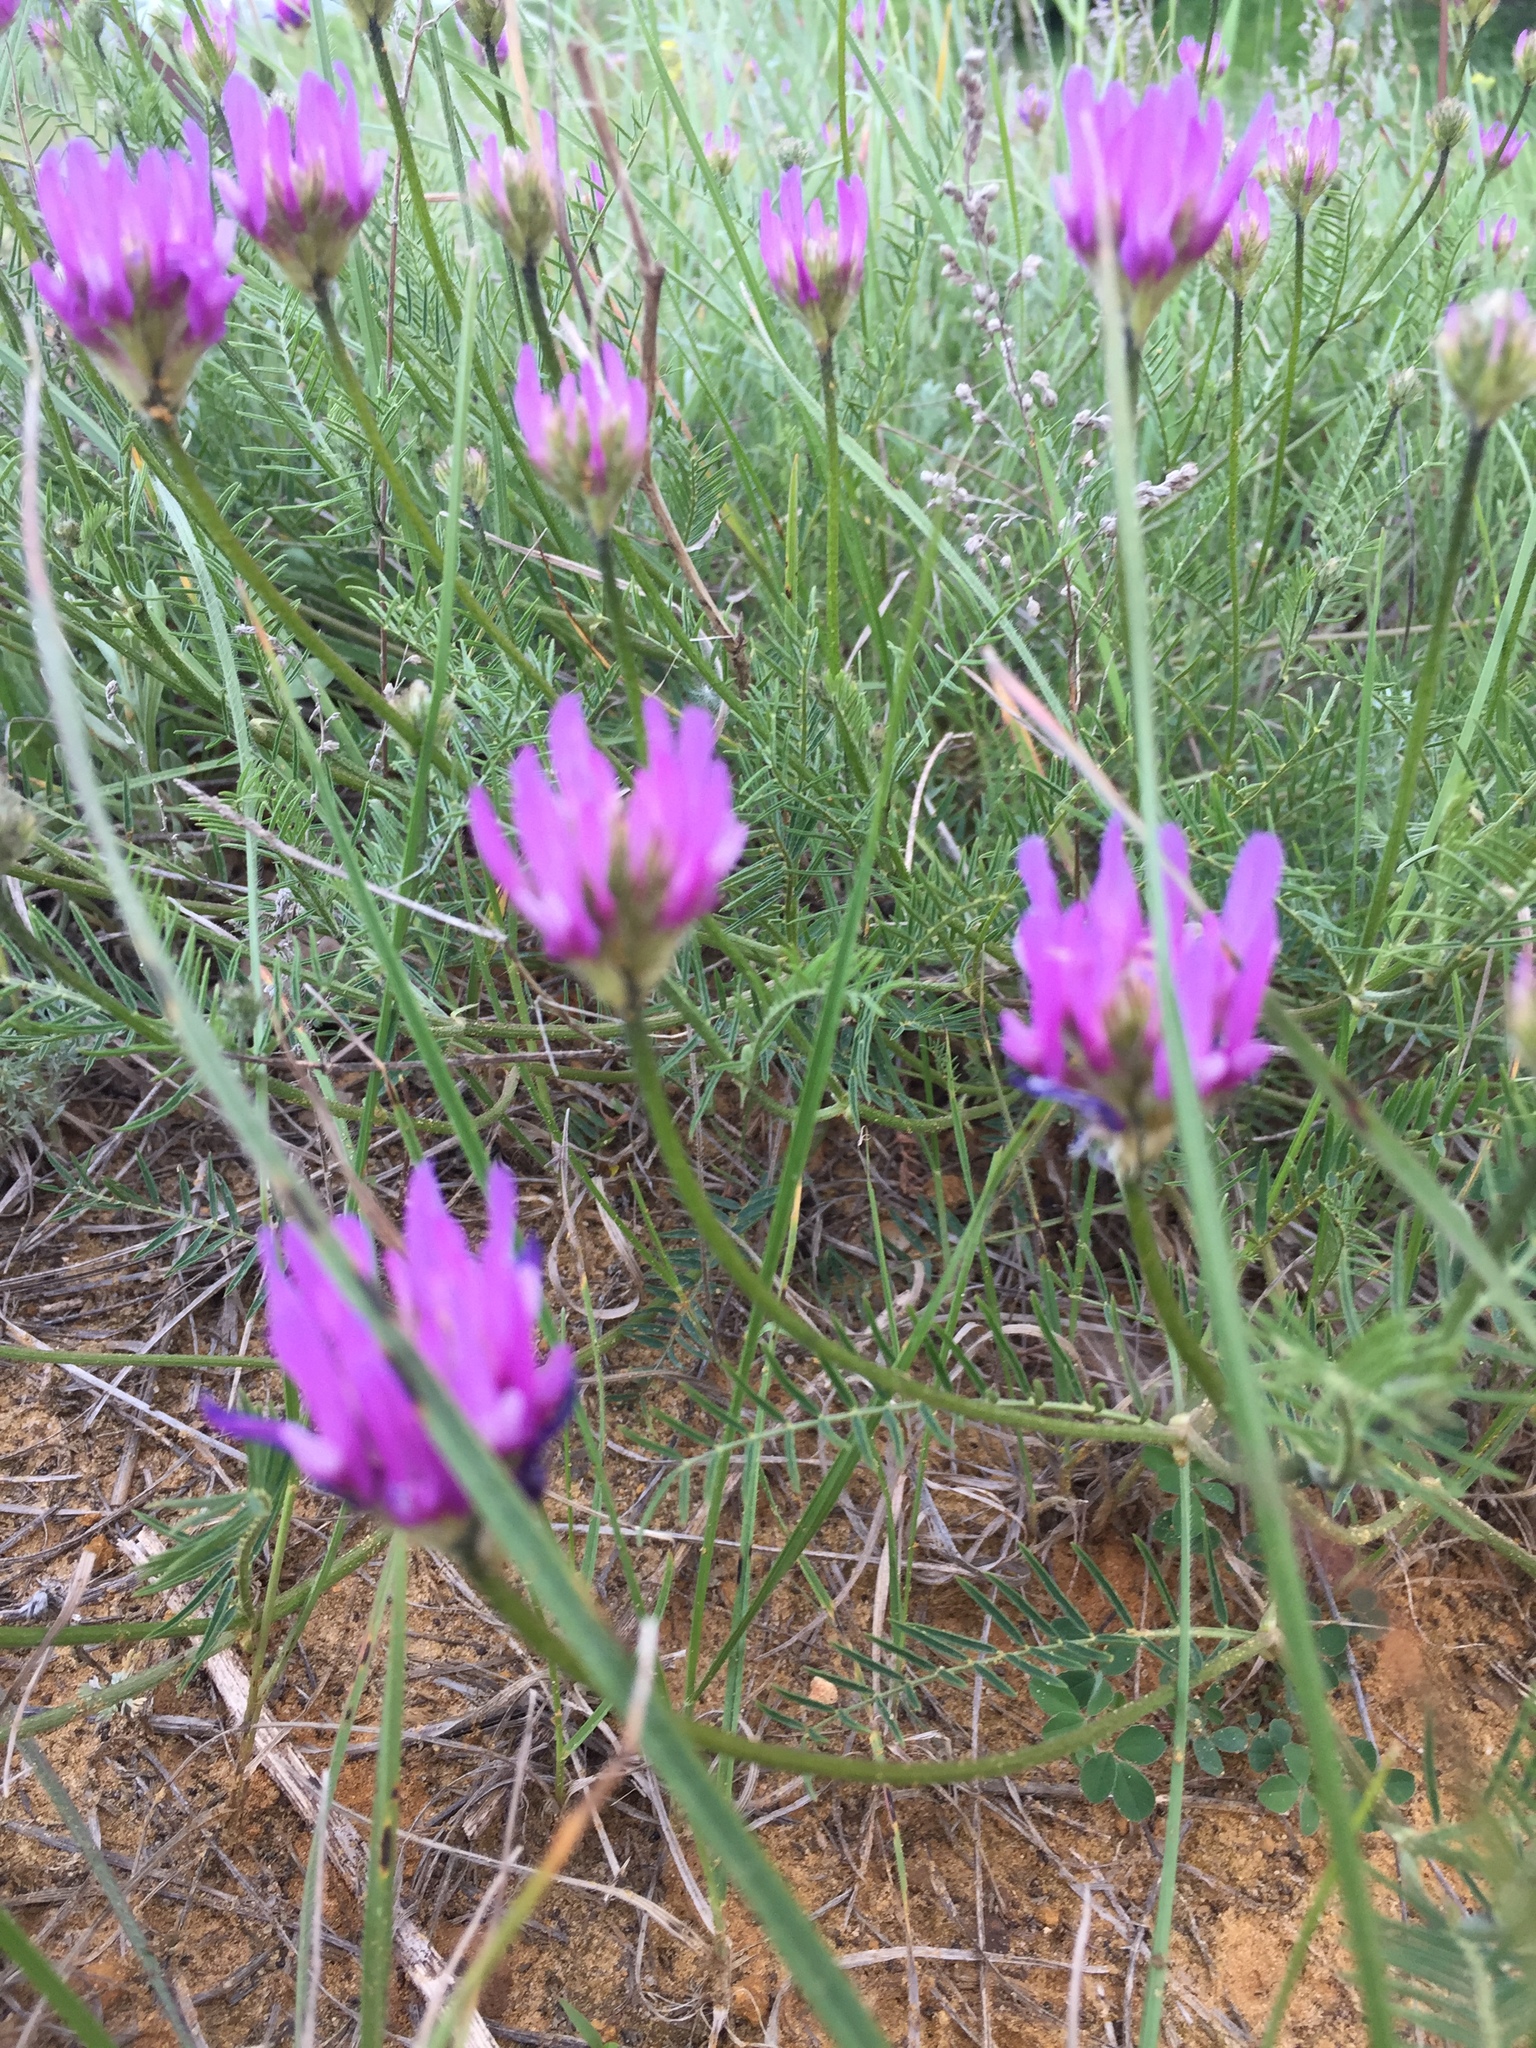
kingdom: Plantae
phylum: Tracheophyta
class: Magnoliopsida
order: Fabales
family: Fabaceae
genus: Astragalus
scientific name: Astragalus onobrychis
